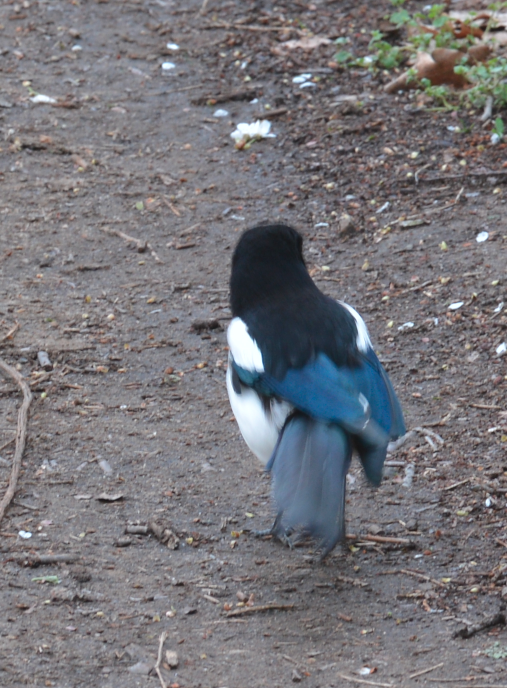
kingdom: Animalia
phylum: Chordata
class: Aves
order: Passeriformes
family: Corvidae
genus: Pica
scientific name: Pica pica
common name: Eurasian magpie
